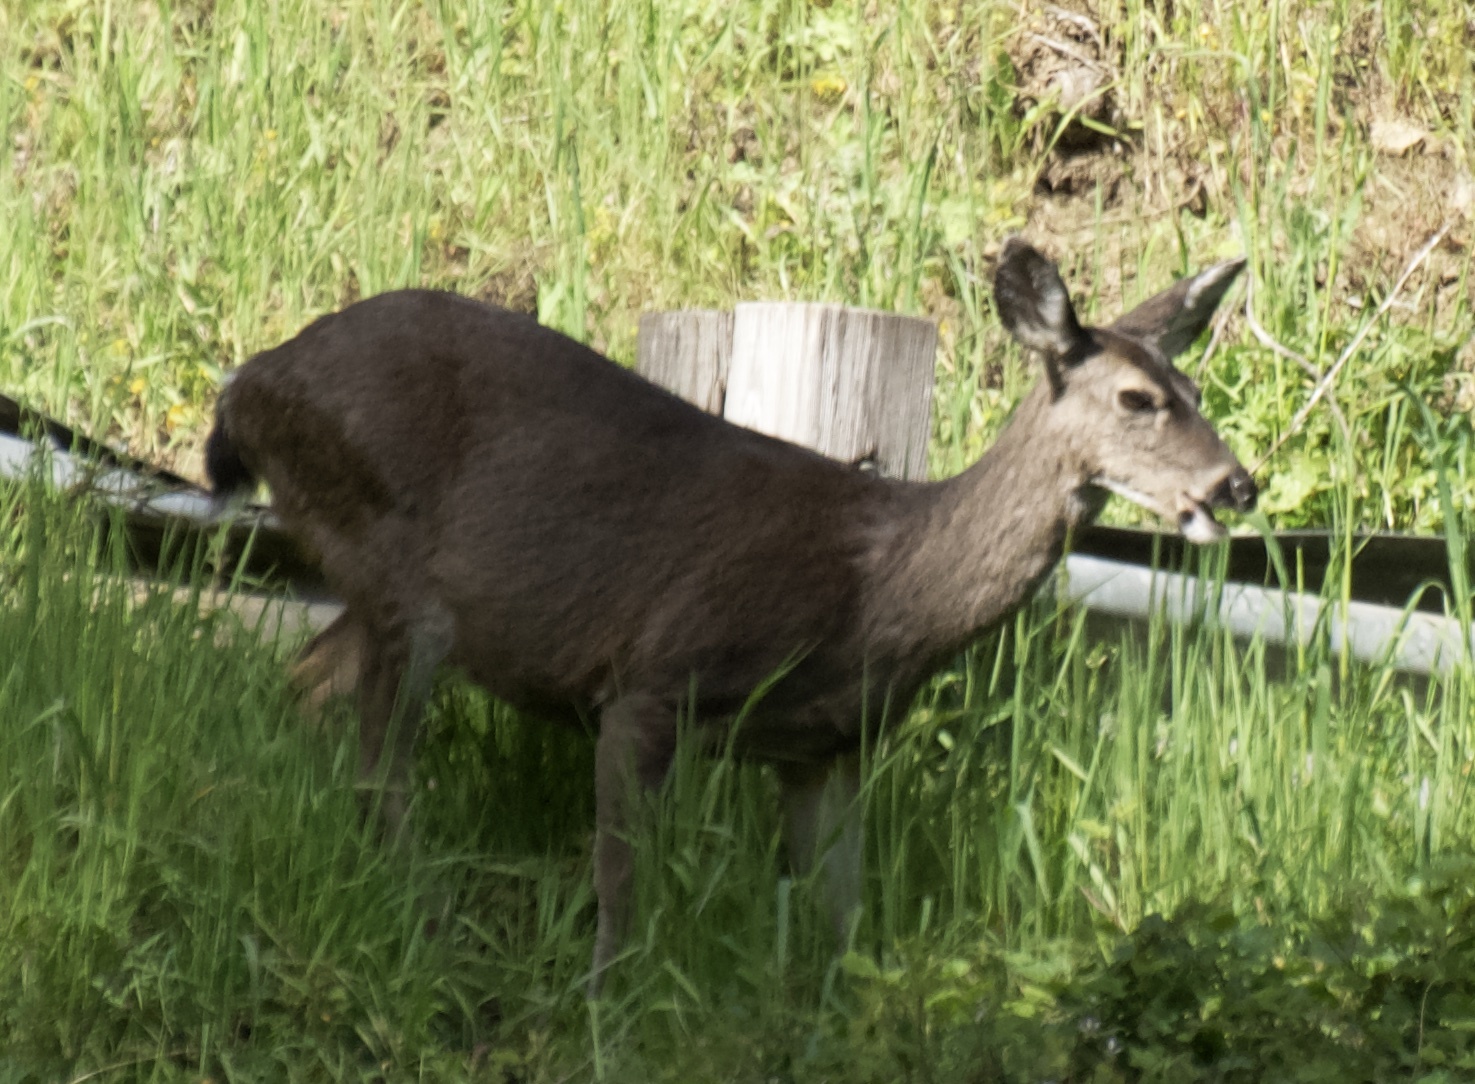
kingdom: Animalia
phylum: Chordata
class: Mammalia
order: Artiodactyla
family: Cervidae
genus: Odocoileus
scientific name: Odocoileus hemionus
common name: Mule deer
